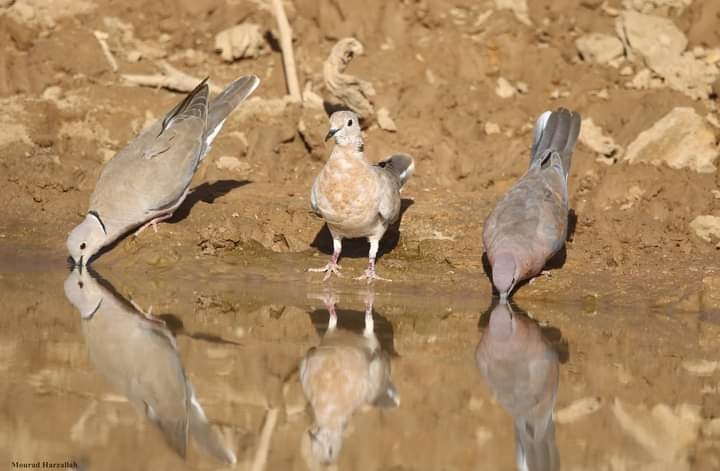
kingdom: Animalia
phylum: Chordata
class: Aves
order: Columbiformes
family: Columbidae
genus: Streptopelia
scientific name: Streptopelia roseogrisea
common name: African collared dove
